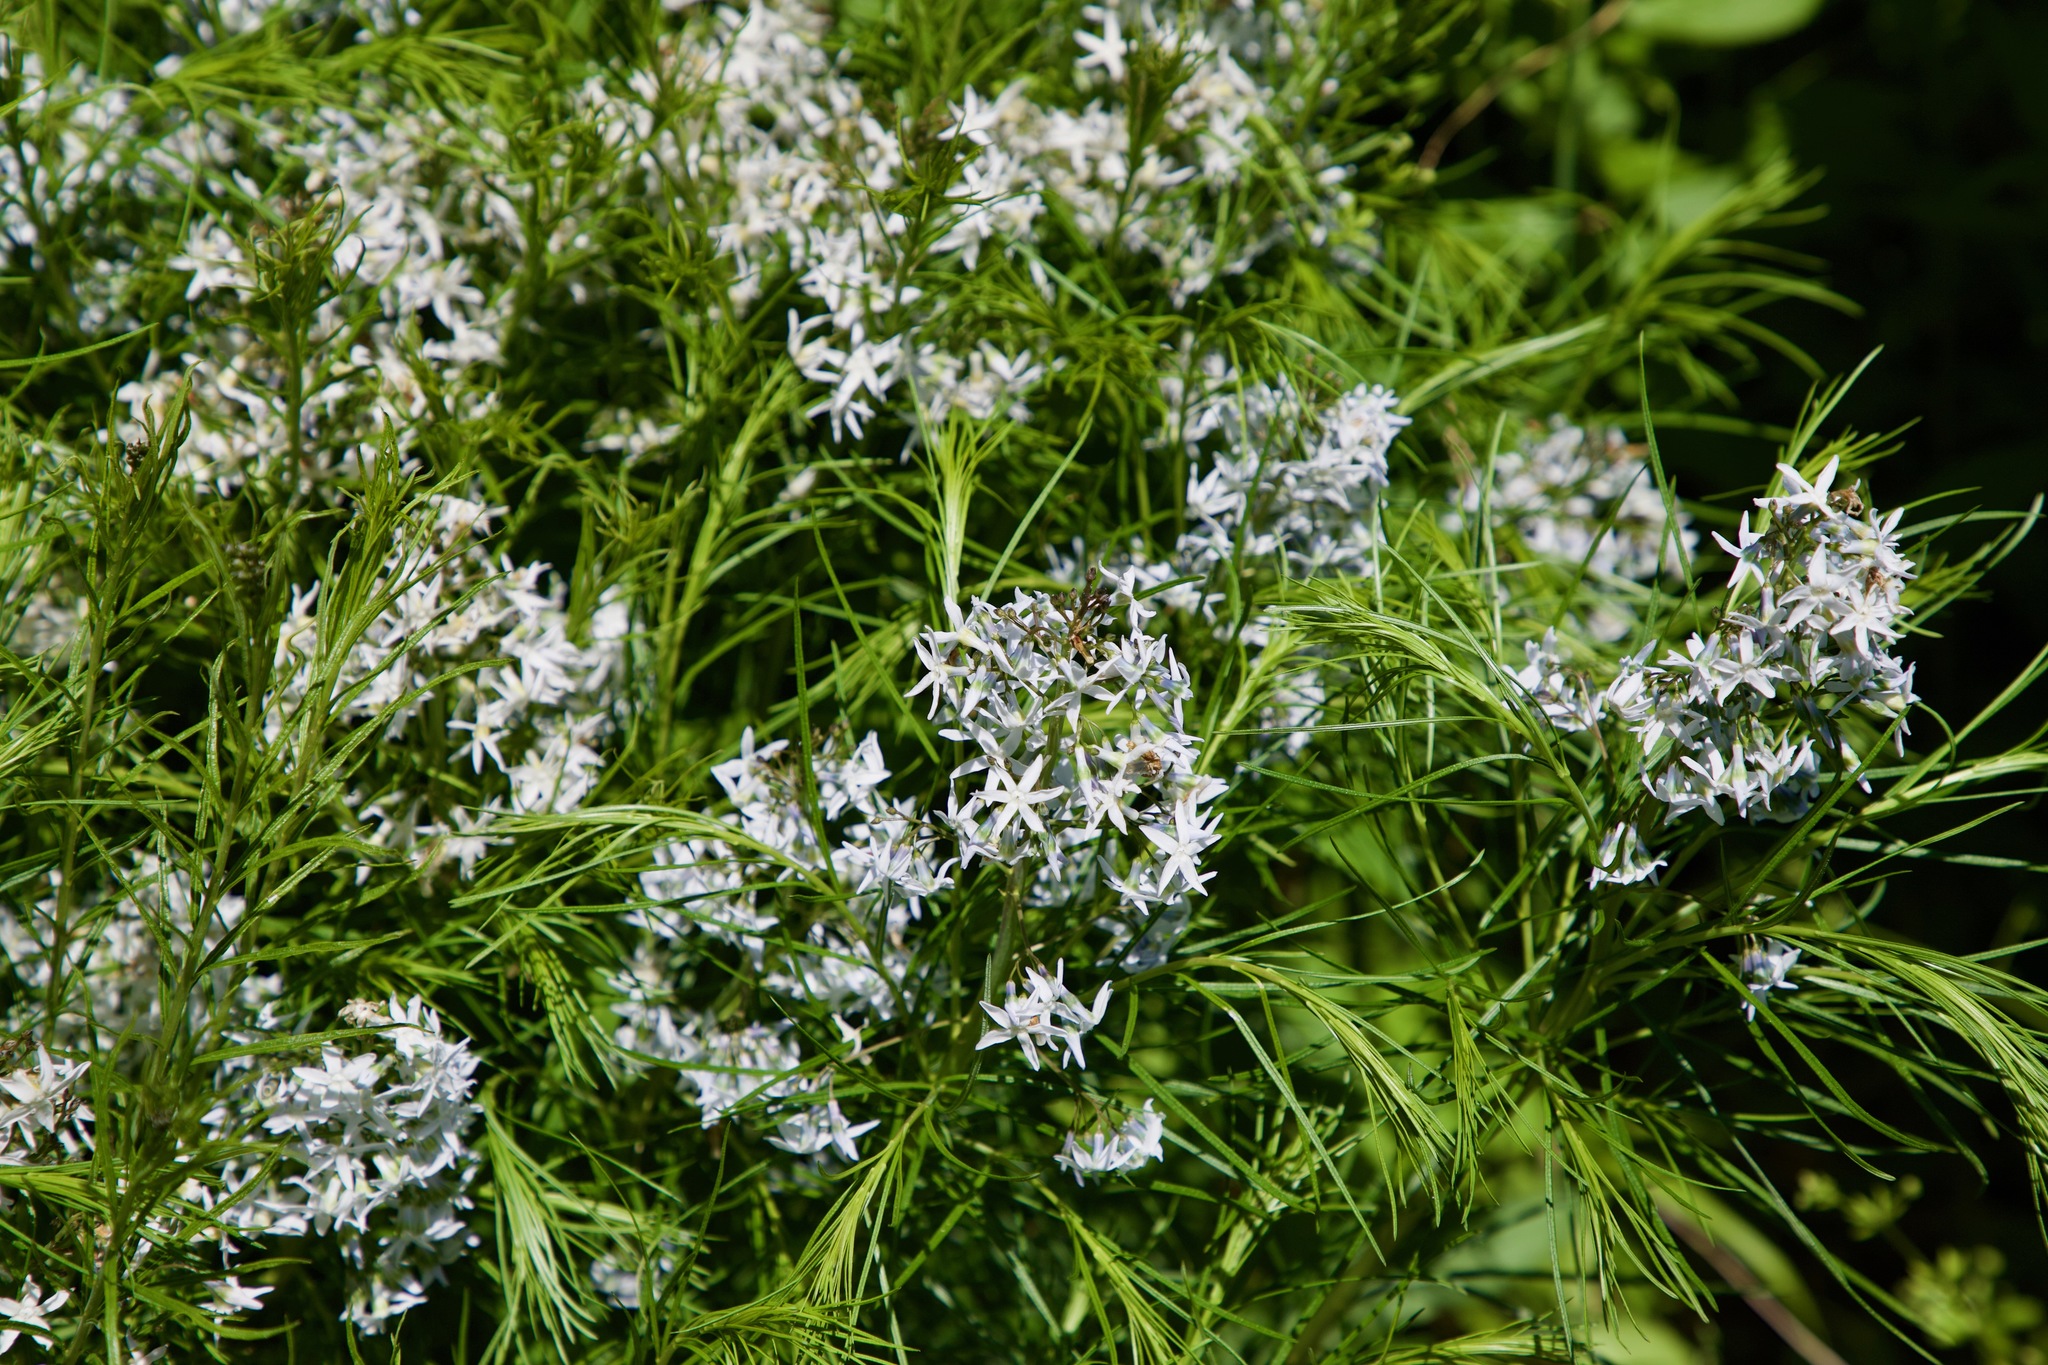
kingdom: Plantae
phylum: Tracheophyta
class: Magnoliopsida
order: Gentianales
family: Apocynaceae
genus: Amsonia
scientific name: Amsonia ciliata
